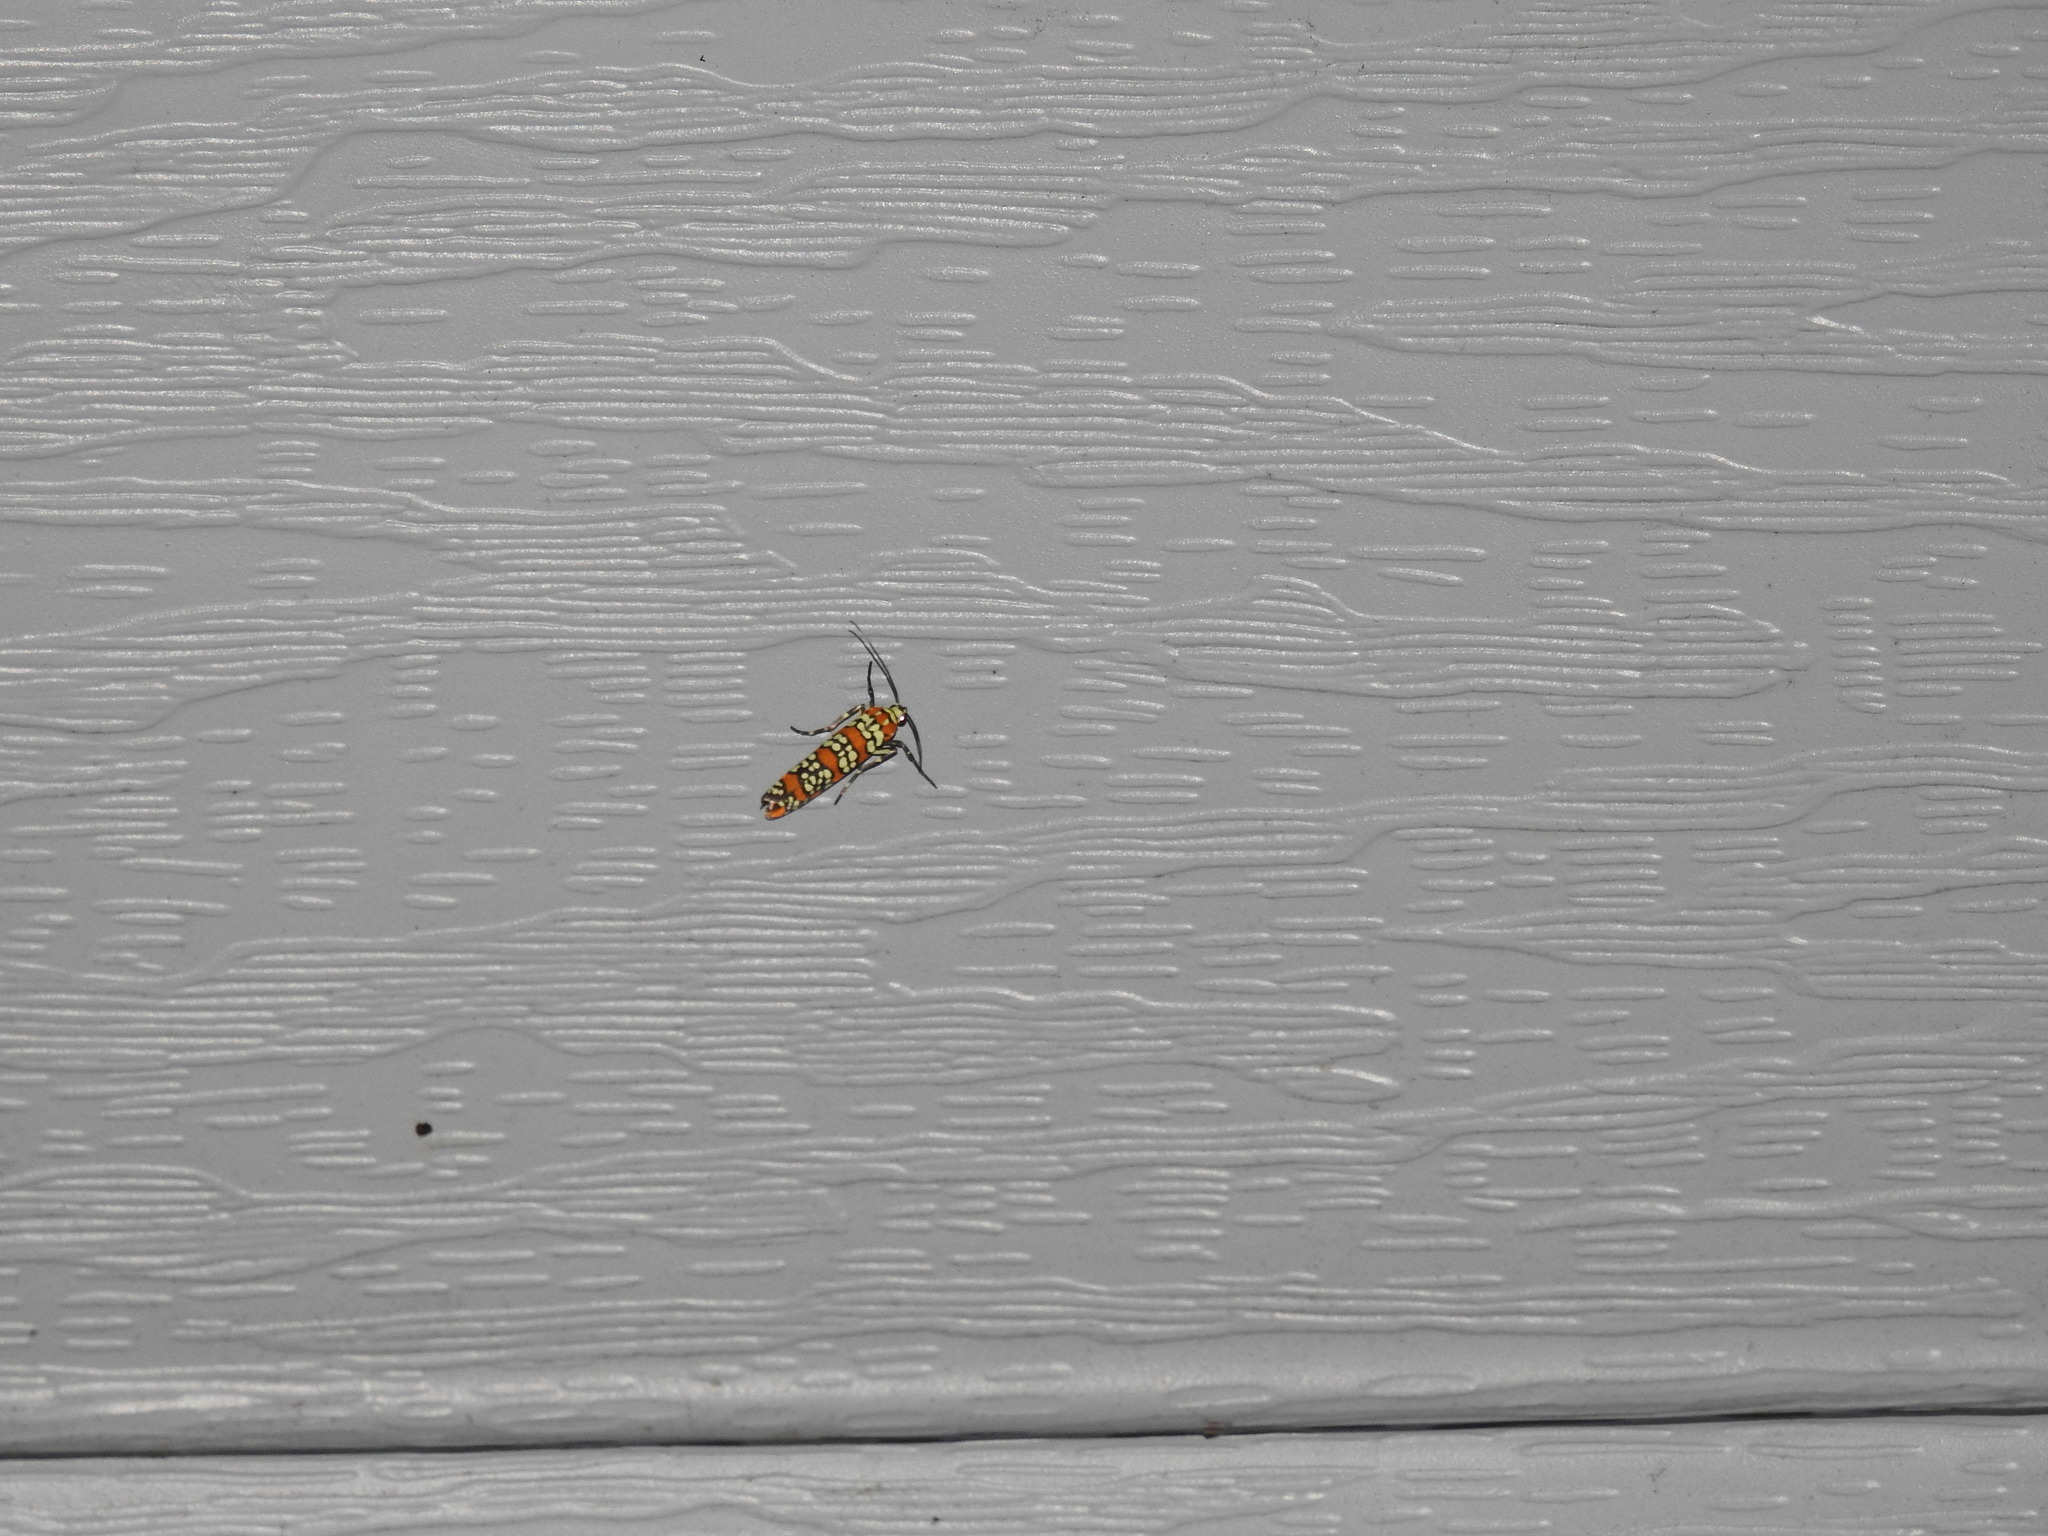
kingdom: Animalia
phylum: Arthropoda
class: Insecta
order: Lepidoptera
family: Attevidae
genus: Atteva
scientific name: Atteva punctella
